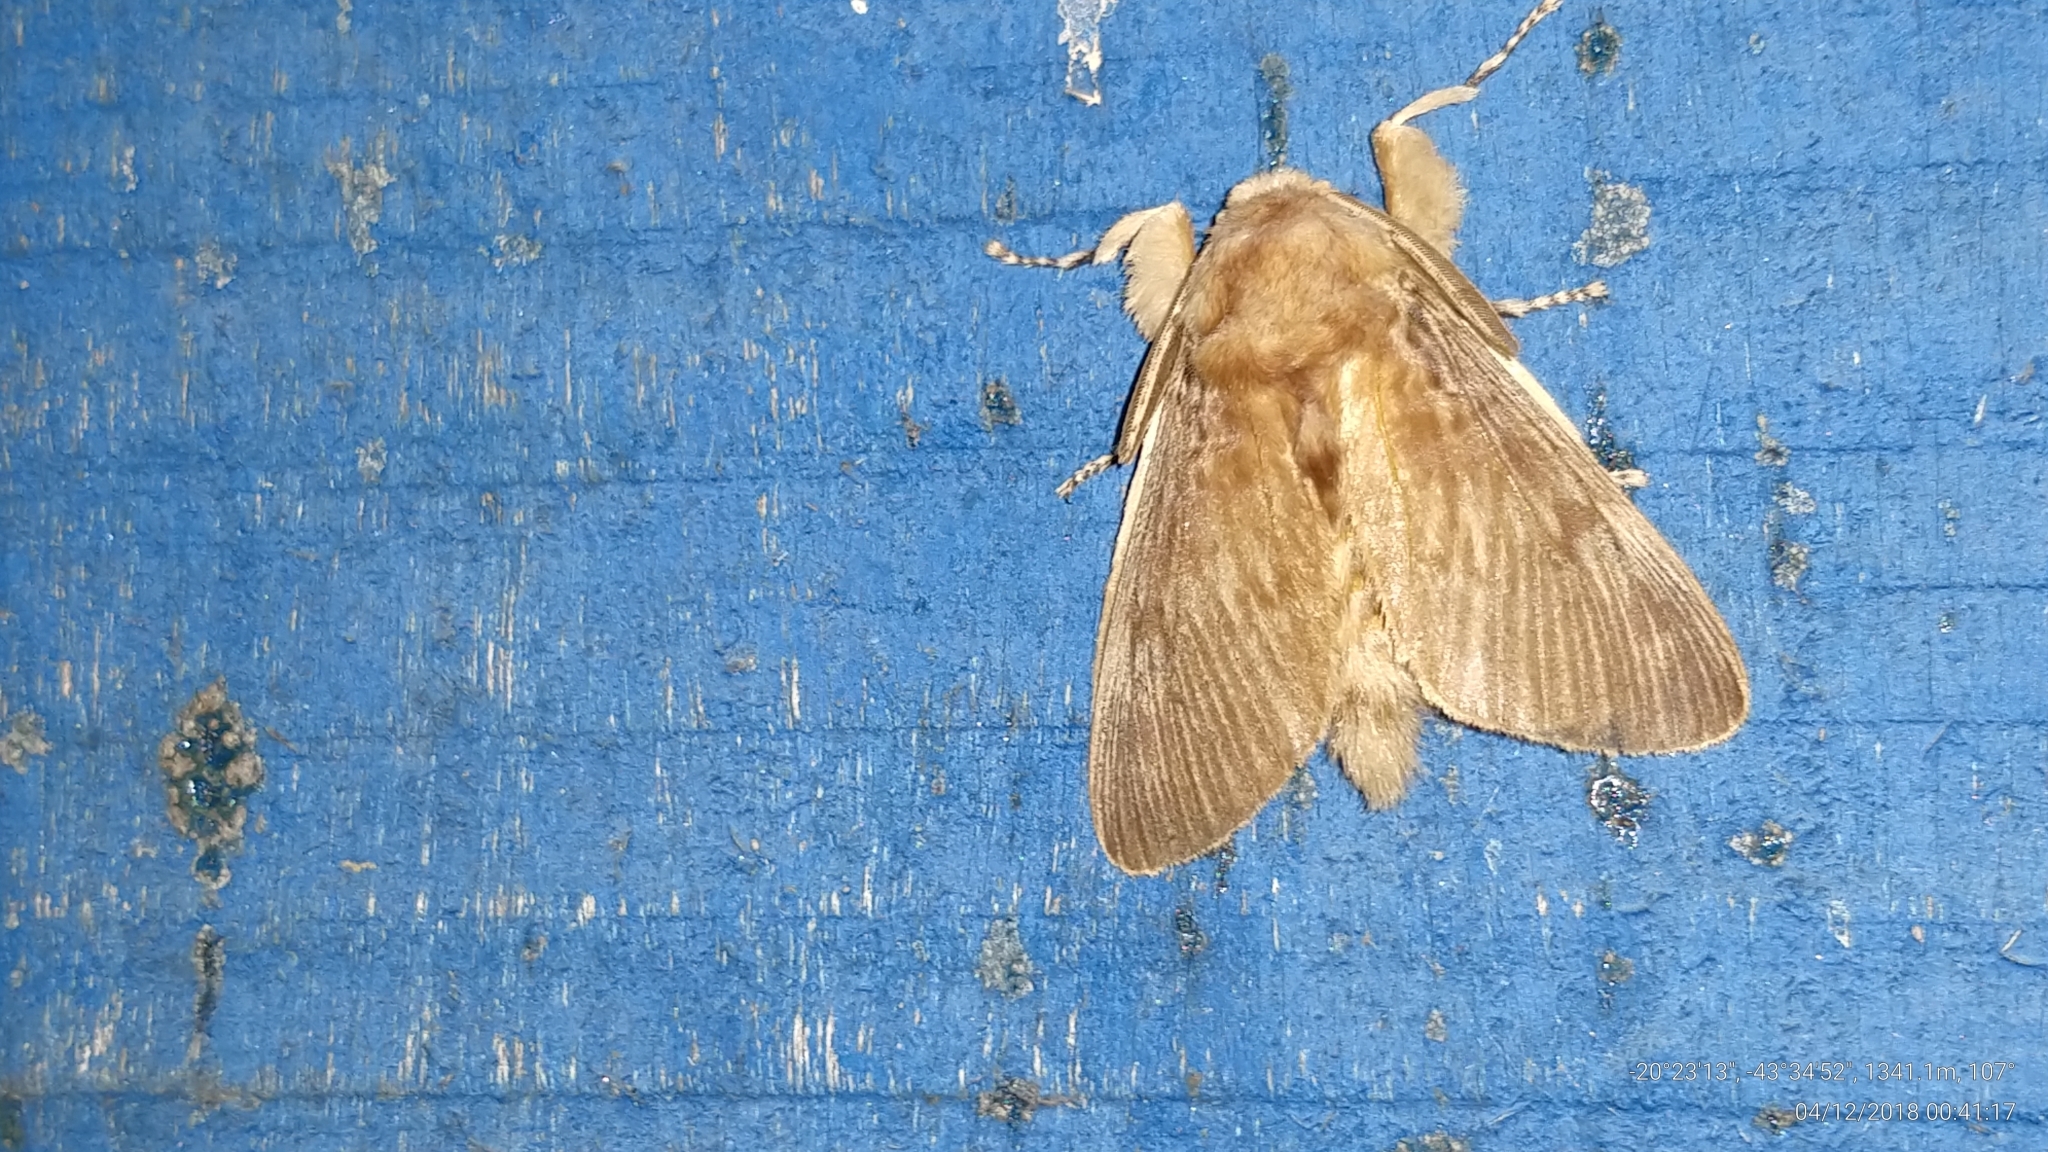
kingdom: Animalia
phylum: Arthropoda
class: Insecta
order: Lepidoptera
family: Megalopygidae
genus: Podalia
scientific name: Podalia annulipes
